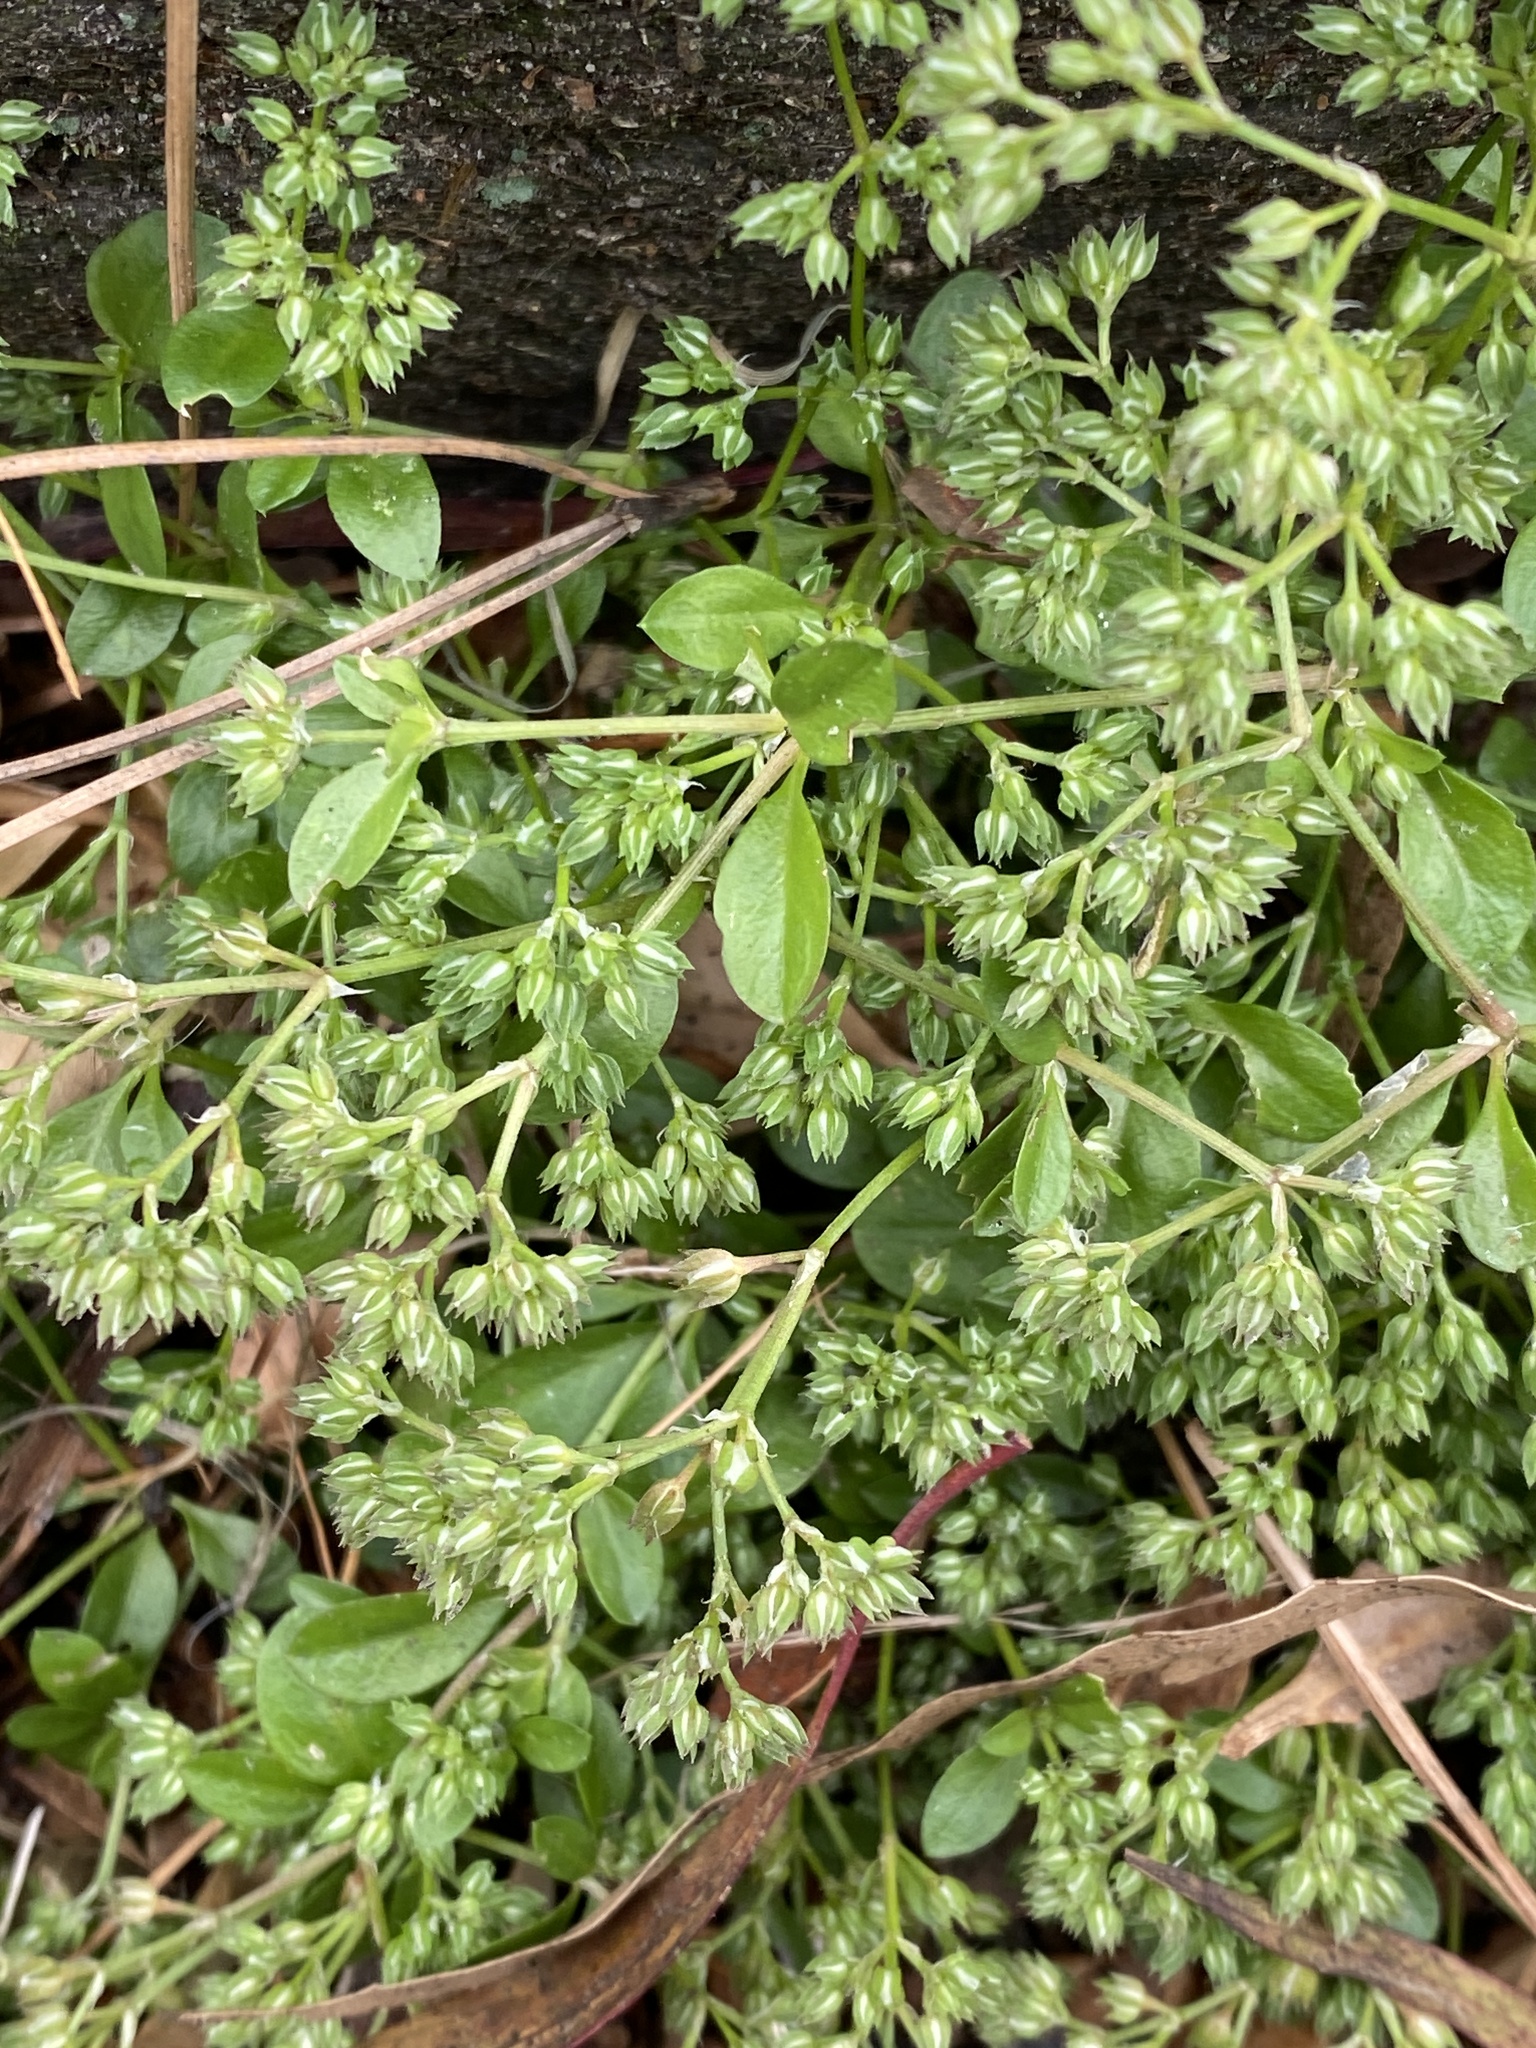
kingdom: Plantae
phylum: Tracheophyta
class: Magnoliopsida
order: Caryophyllales
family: Caryophyllaceae
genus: Polycarpon
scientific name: Polycarpon tetraphyllum
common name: Four-leaved all-seed
